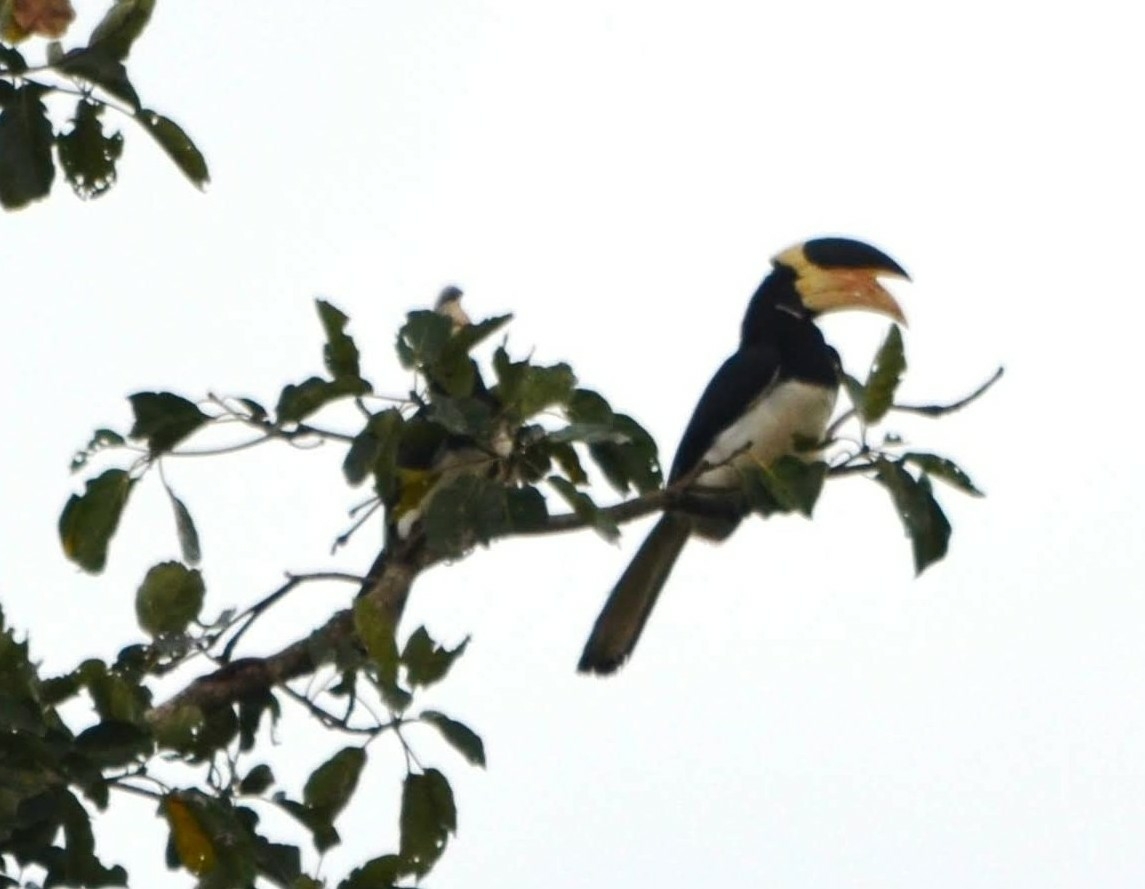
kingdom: Animalia
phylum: Chordata
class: Aves
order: Bucerotiformes
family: Bucerotidae
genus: Anthracoceros
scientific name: Anthracoceros coronatus
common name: Malabar pied hornbill
